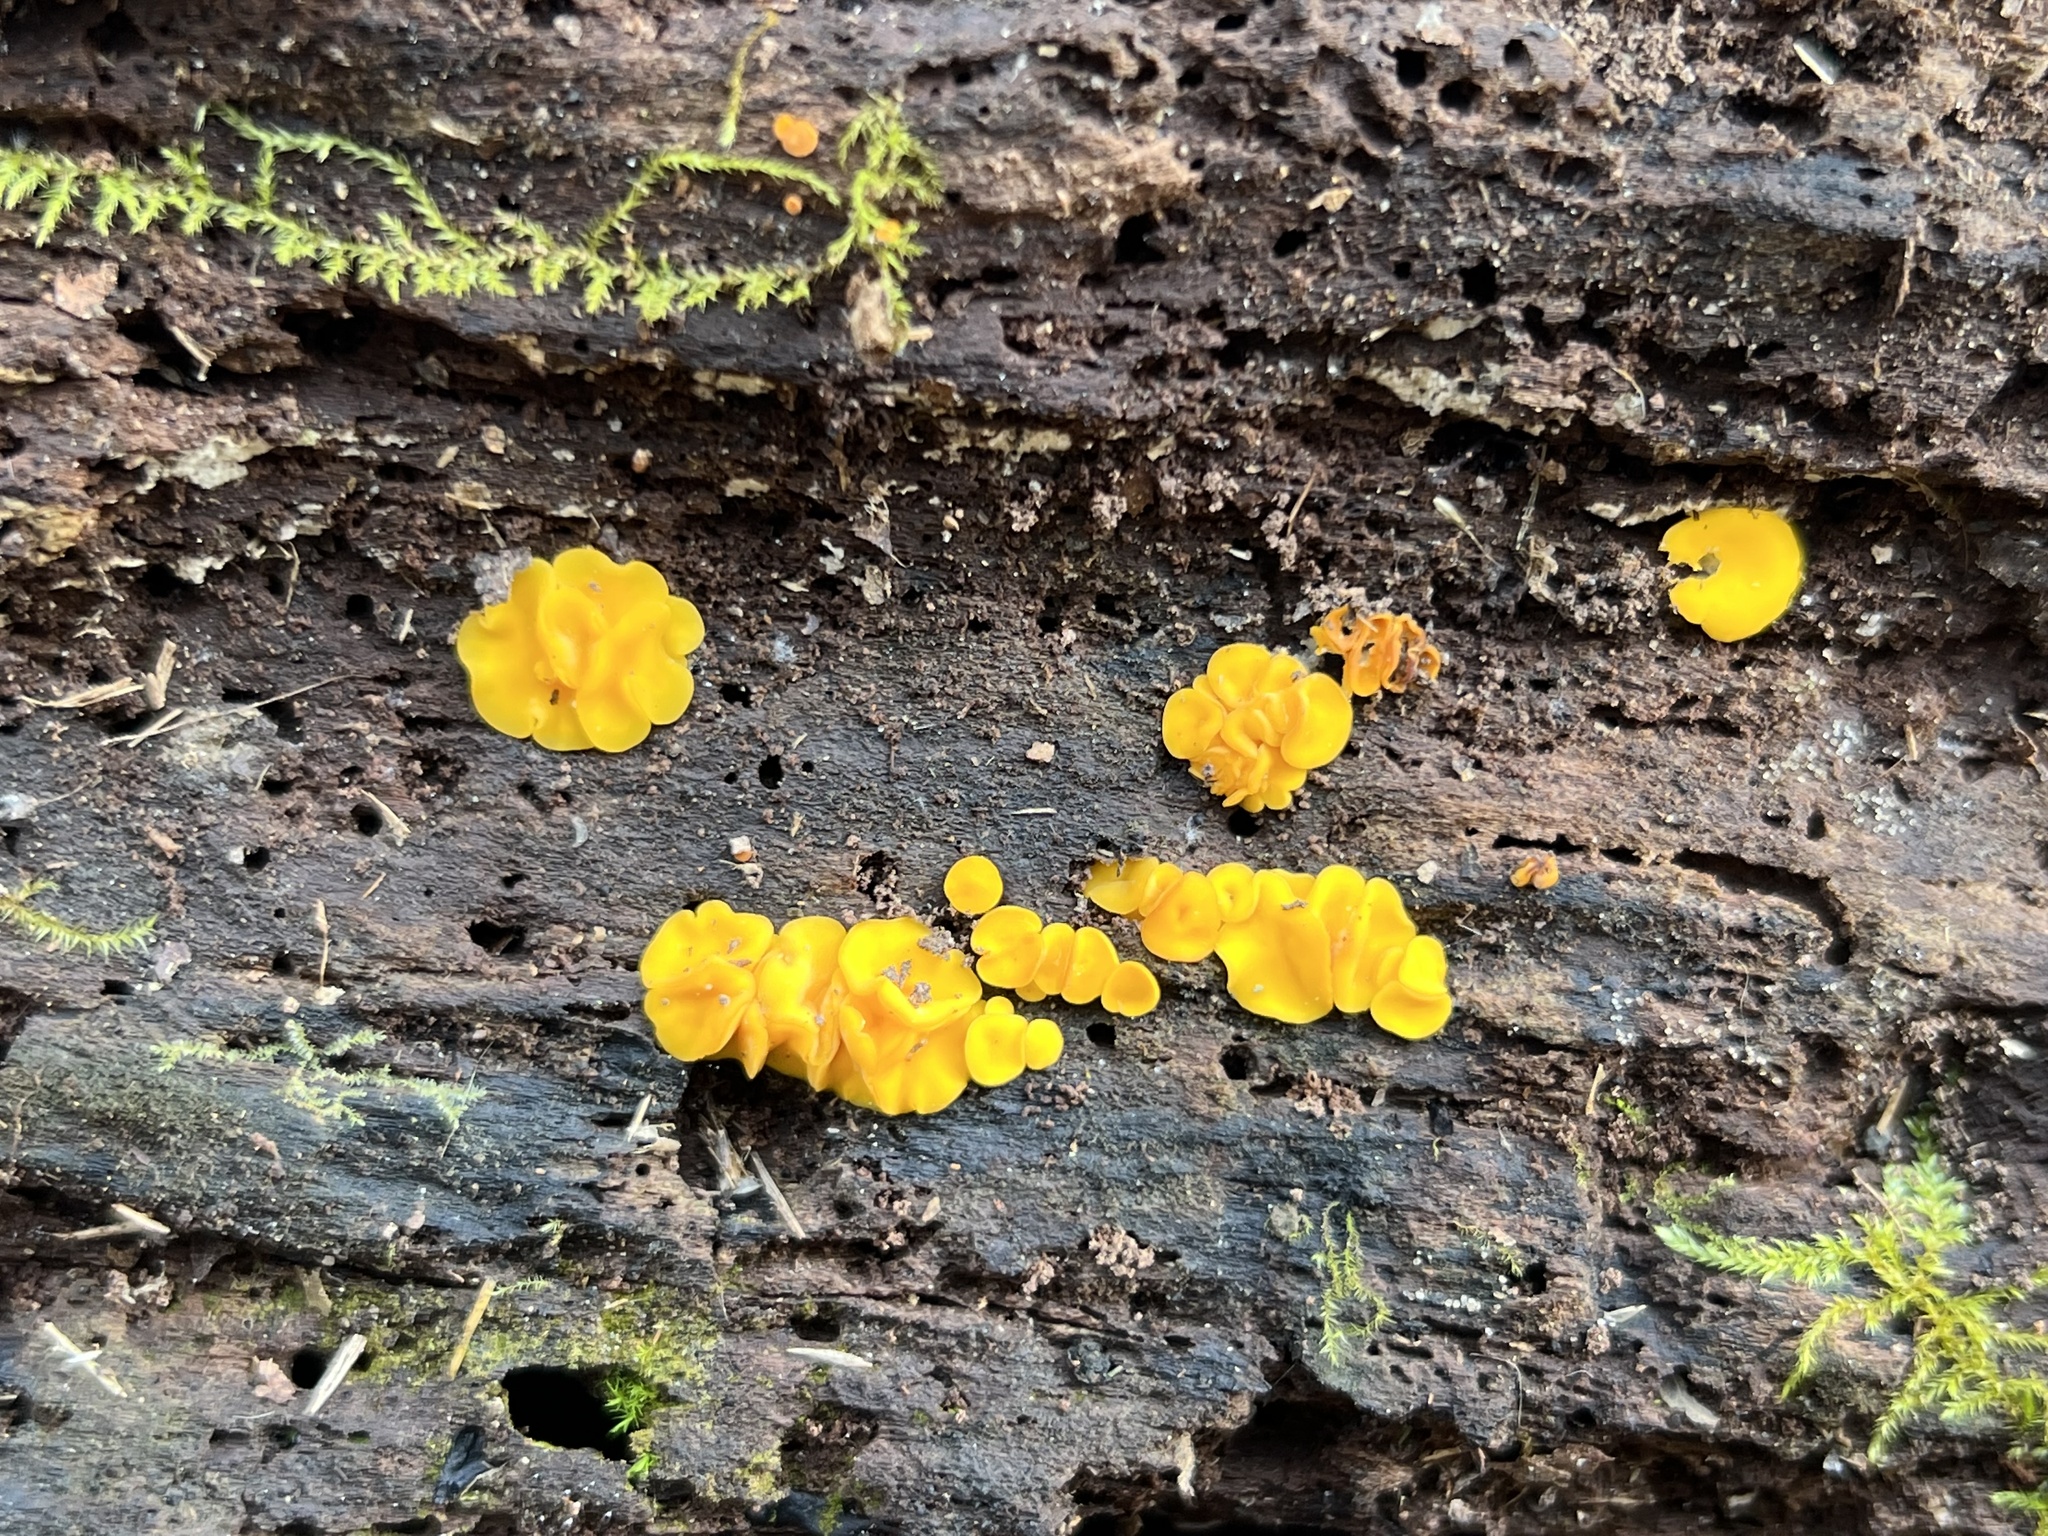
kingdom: Fungi
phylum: Ascomycota
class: Leotiomycetes
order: Helotiales
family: Pezizellaceae
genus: Calycina
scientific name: Calycina citrina
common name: Yellow fairy cups
